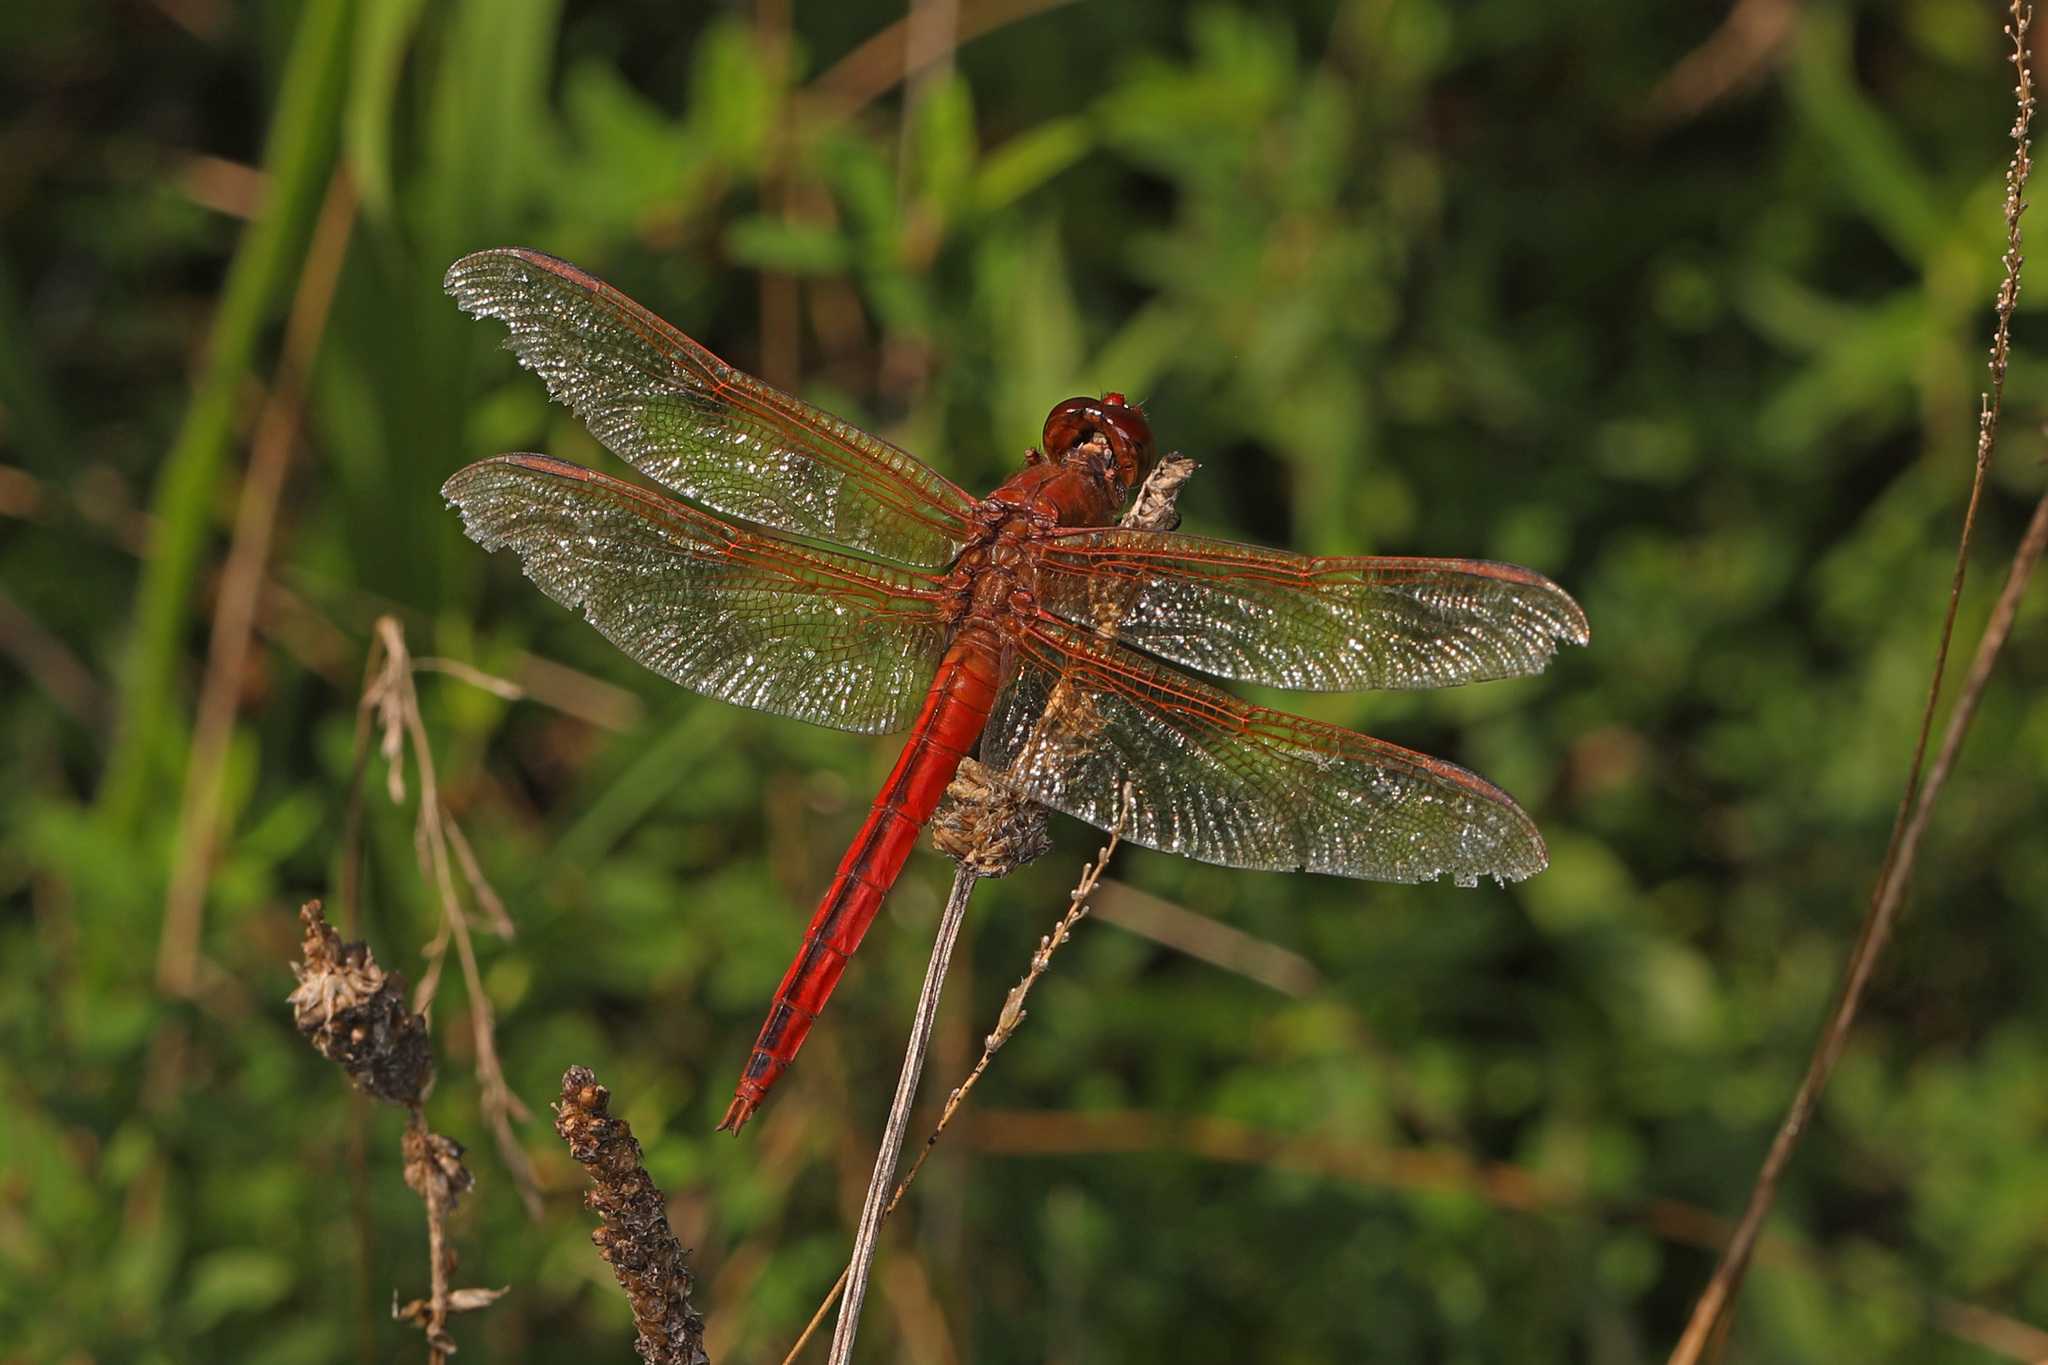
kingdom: Animalia
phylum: Arthropoda
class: Insecta
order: Odonata
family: Libellulidae
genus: Libellula
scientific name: Libellula needhami
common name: Needham's skimmer
